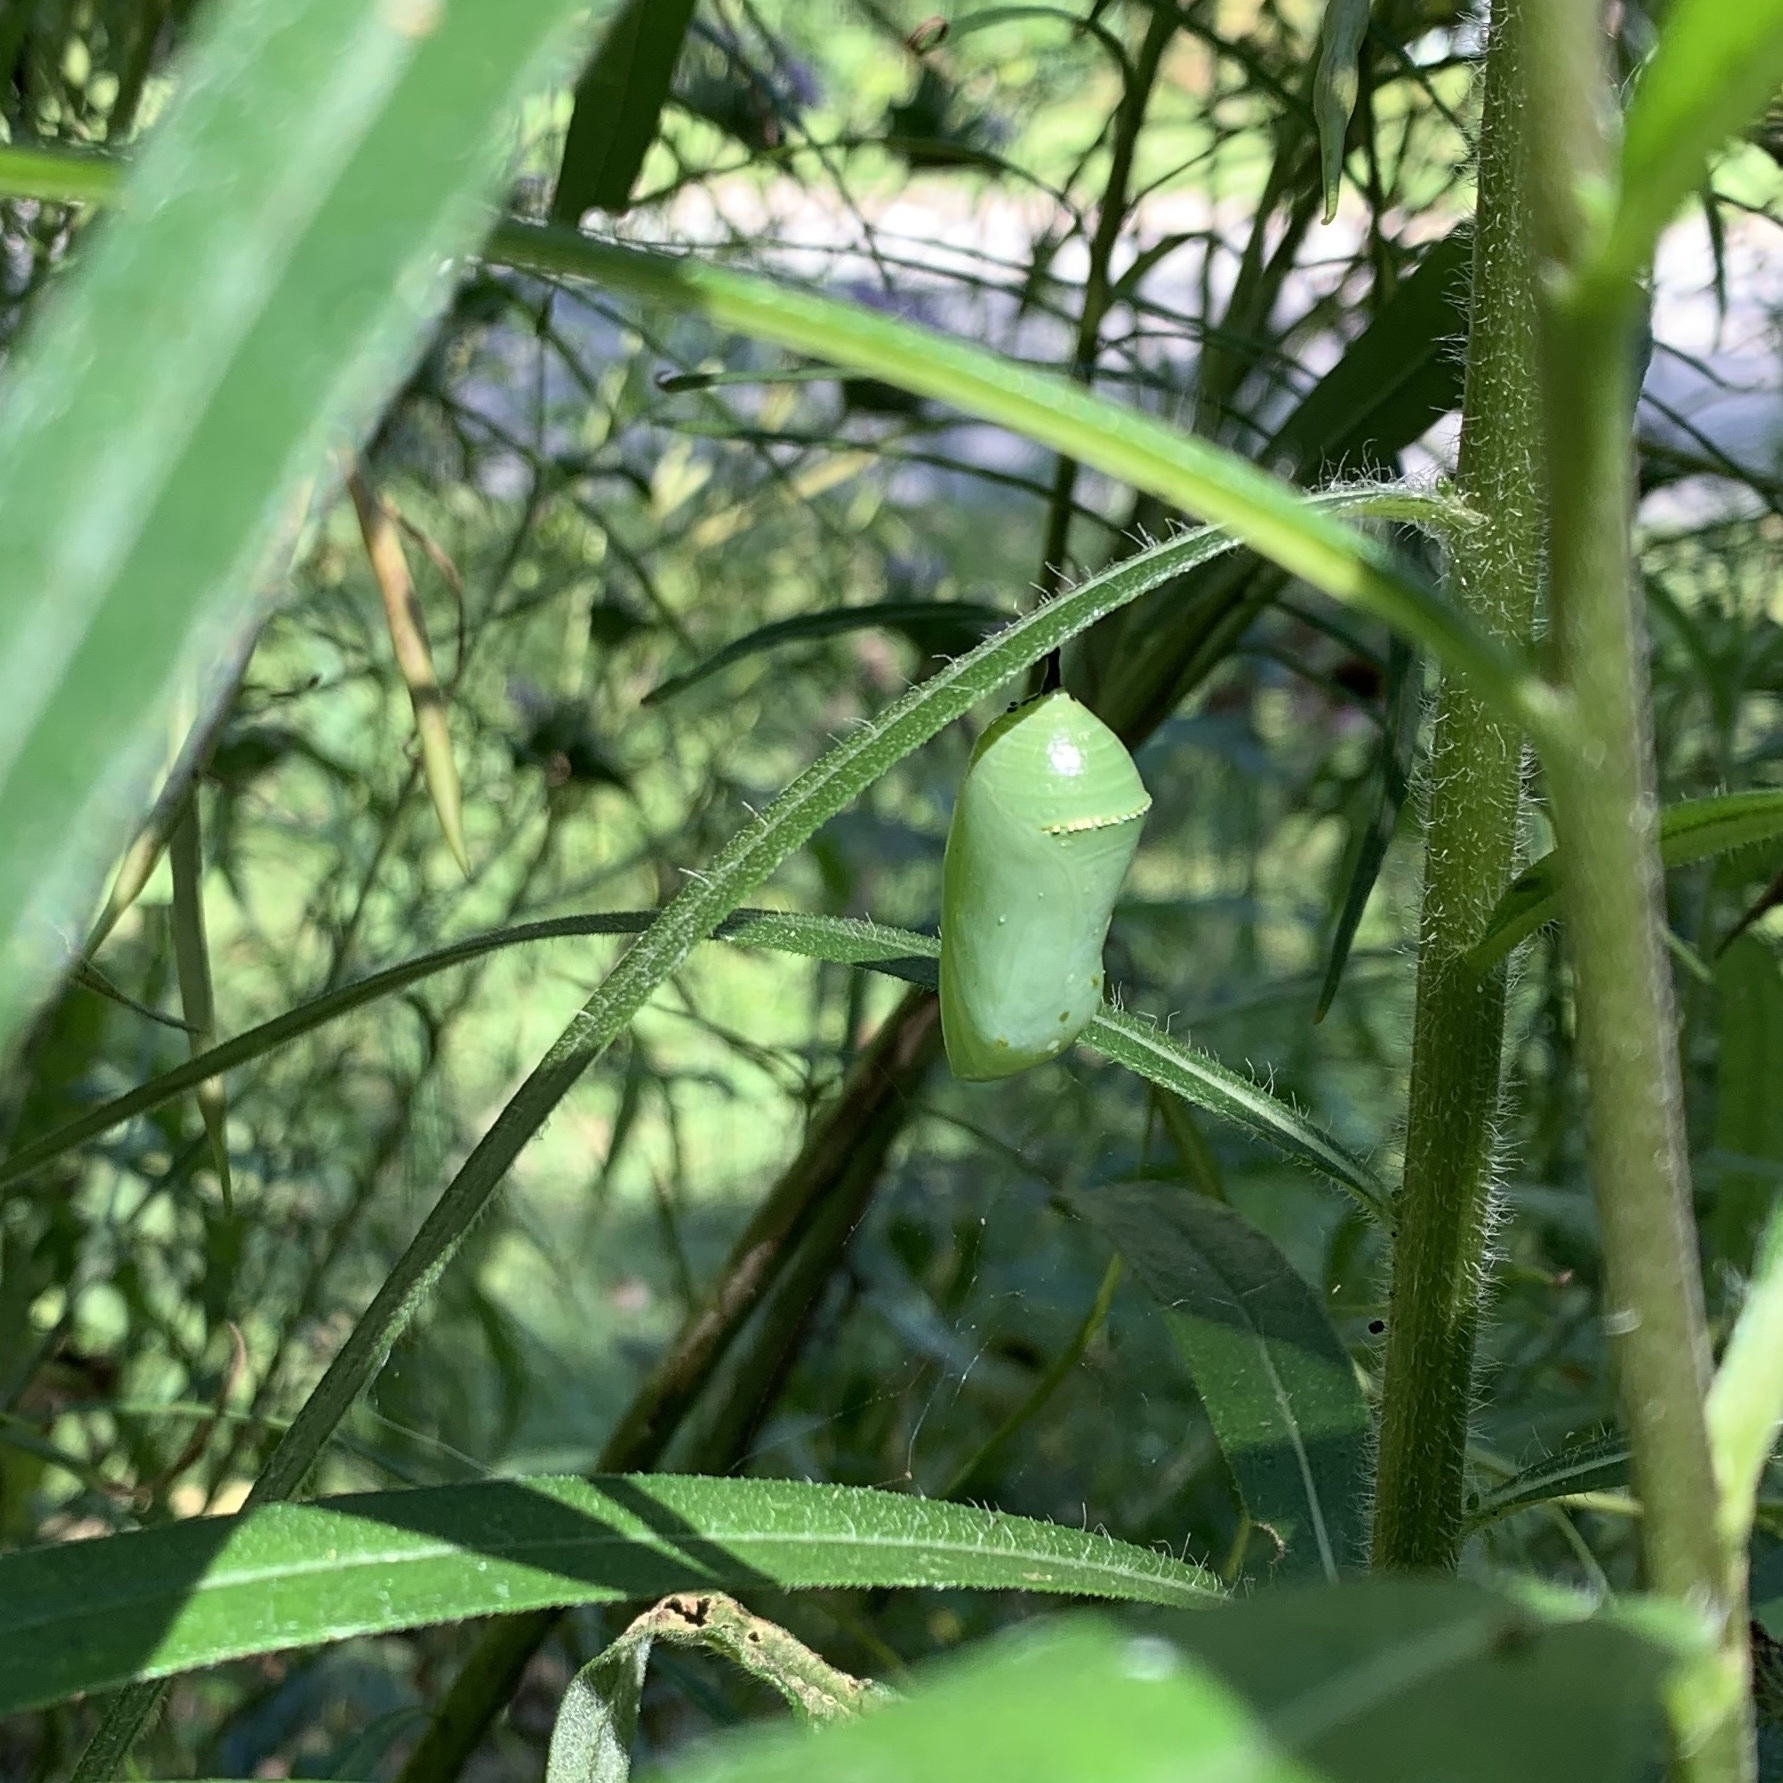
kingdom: Animalia
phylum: Arthropoda
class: Insecta
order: Lepidoptera
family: Nymphalidae
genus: Danaus
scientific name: Danaus plexippus
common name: Monarch
